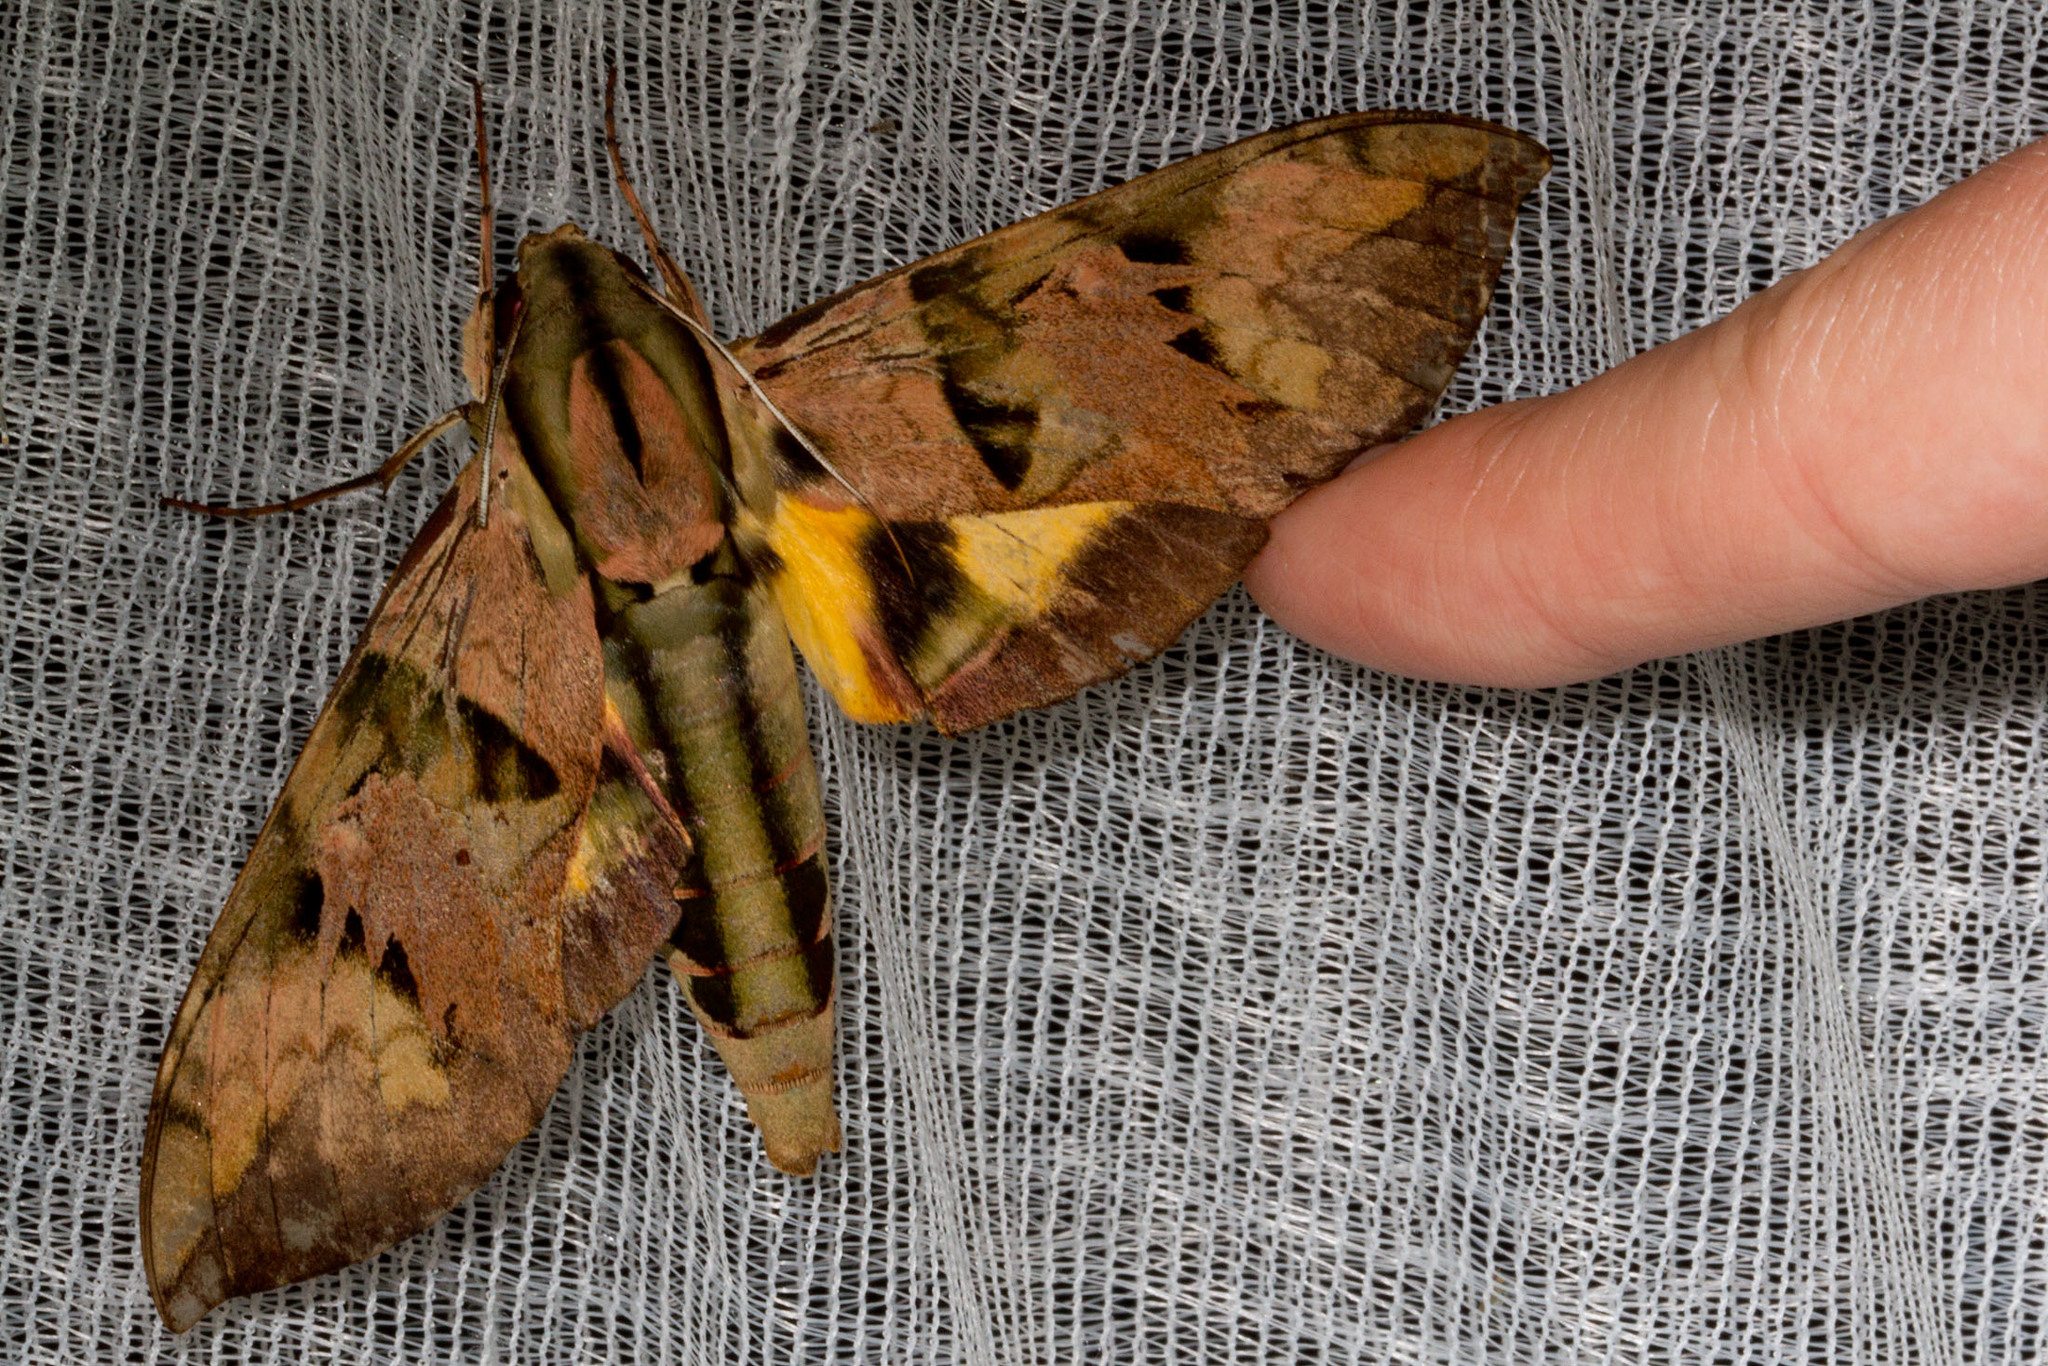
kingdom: Animalia
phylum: Arthropoda
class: Insecta
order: Lepidoptera
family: Sphingidae
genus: Eumorpha
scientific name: Eumorpha capronnieri
